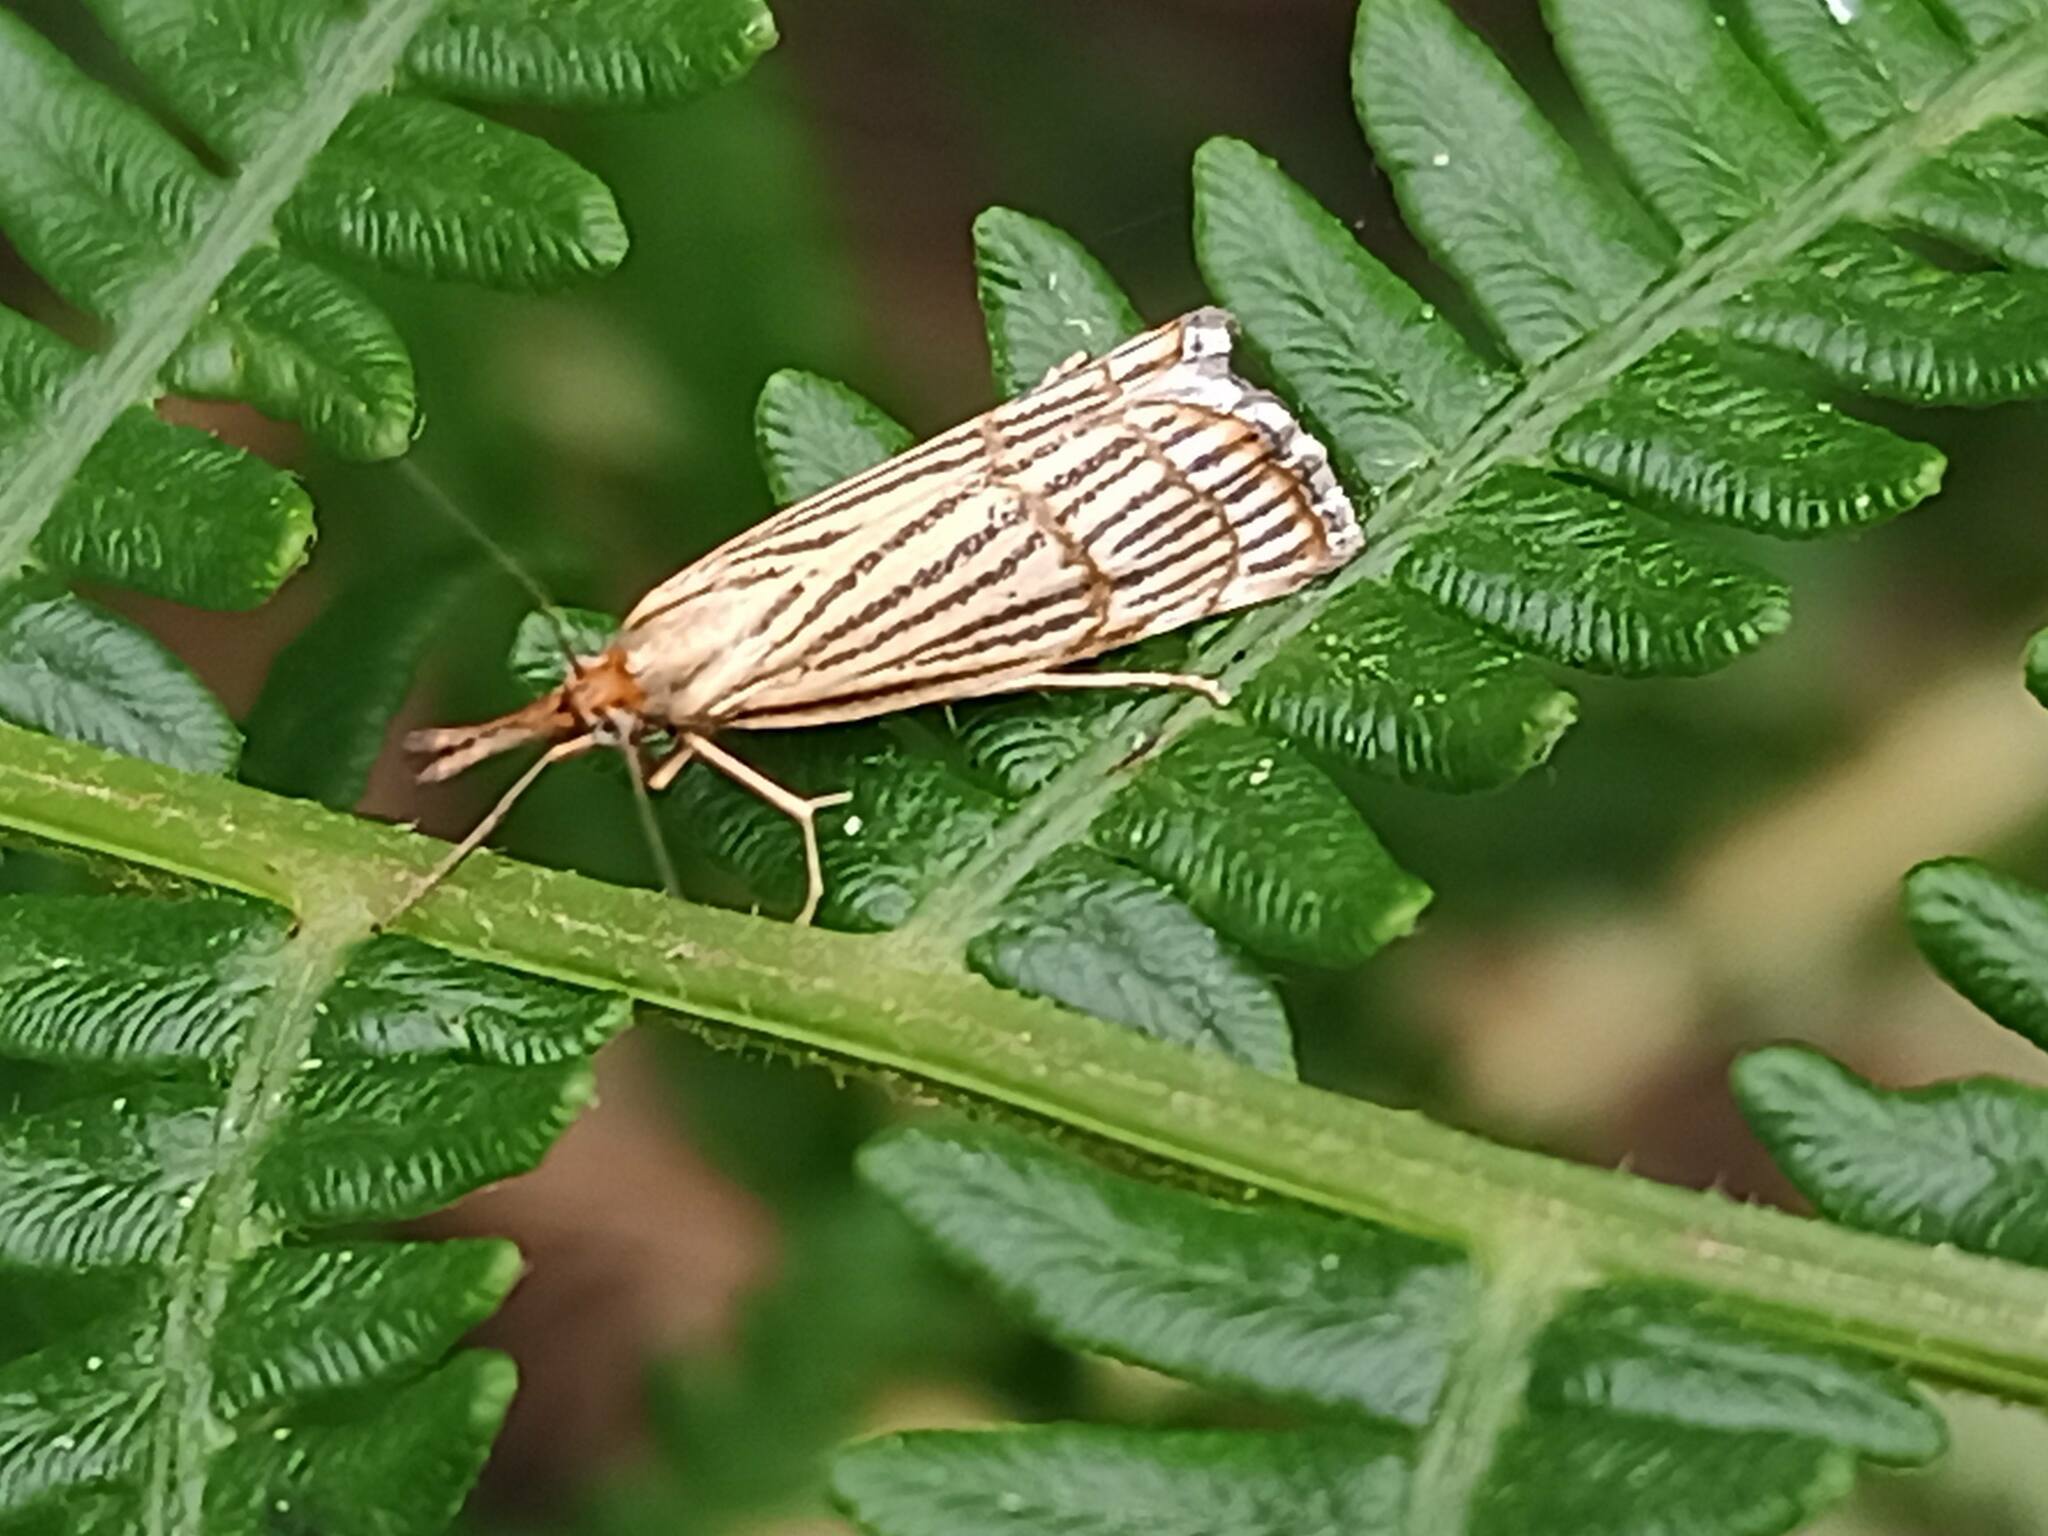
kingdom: Animalia
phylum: Arthropoda
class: Insecta
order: Lepidoptera
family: Crambidae
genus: Chrysocrambus
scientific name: Chrysocrambus linetella
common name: Orange-bar grass-veneer
